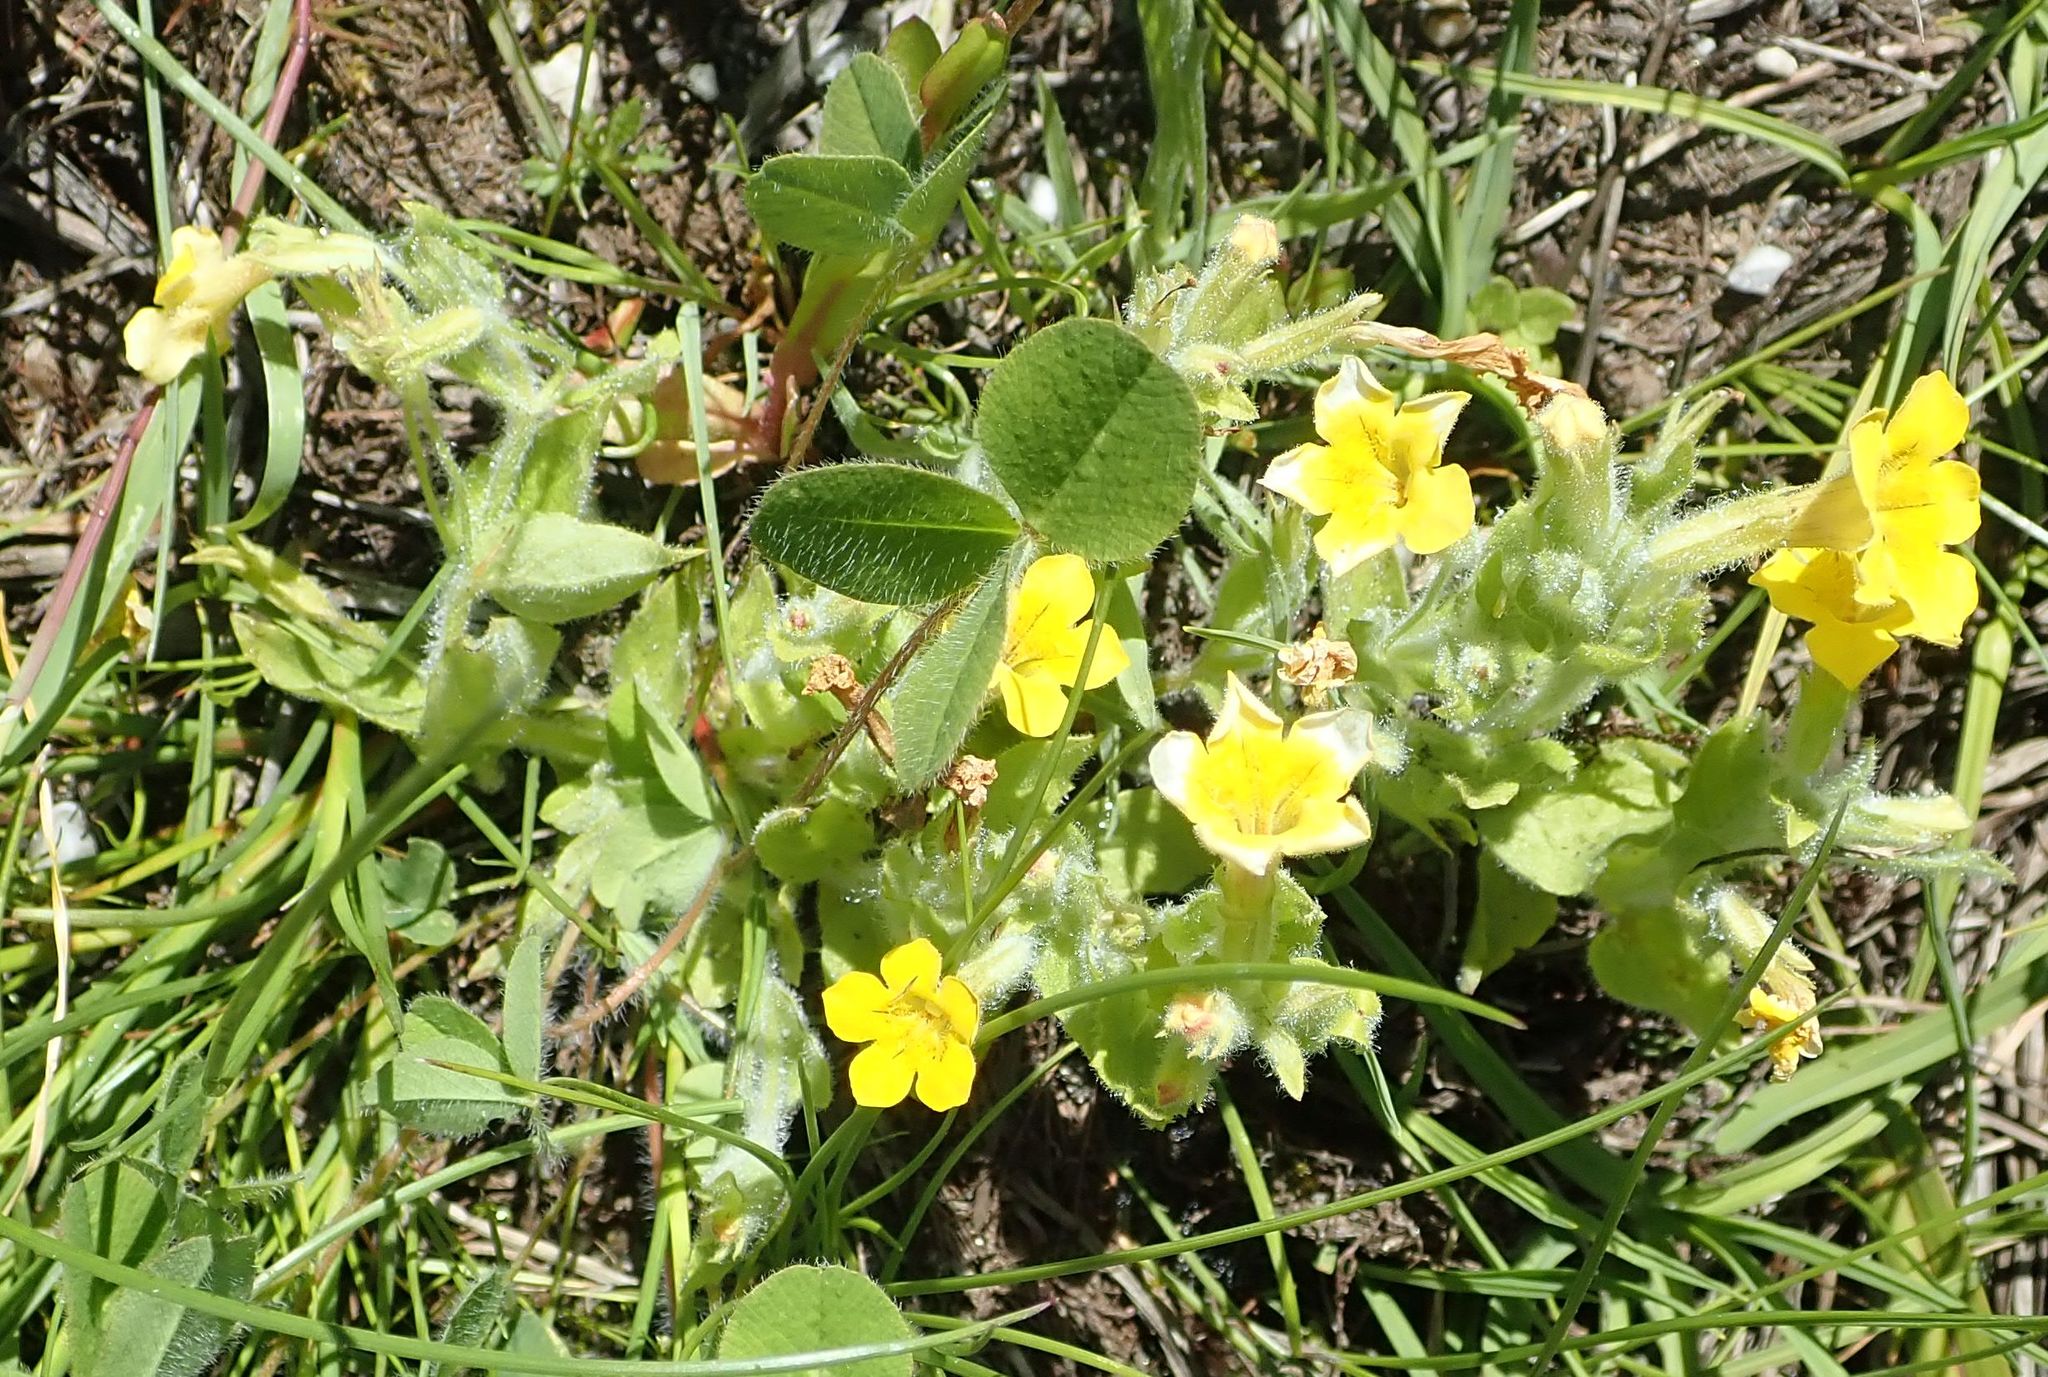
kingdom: Plantae
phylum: Tracheophyta
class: Magnoliopsida
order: Lamiales
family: Phrymaceae
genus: Erythranthe
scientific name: Erythranthe moschata
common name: Muskflower
